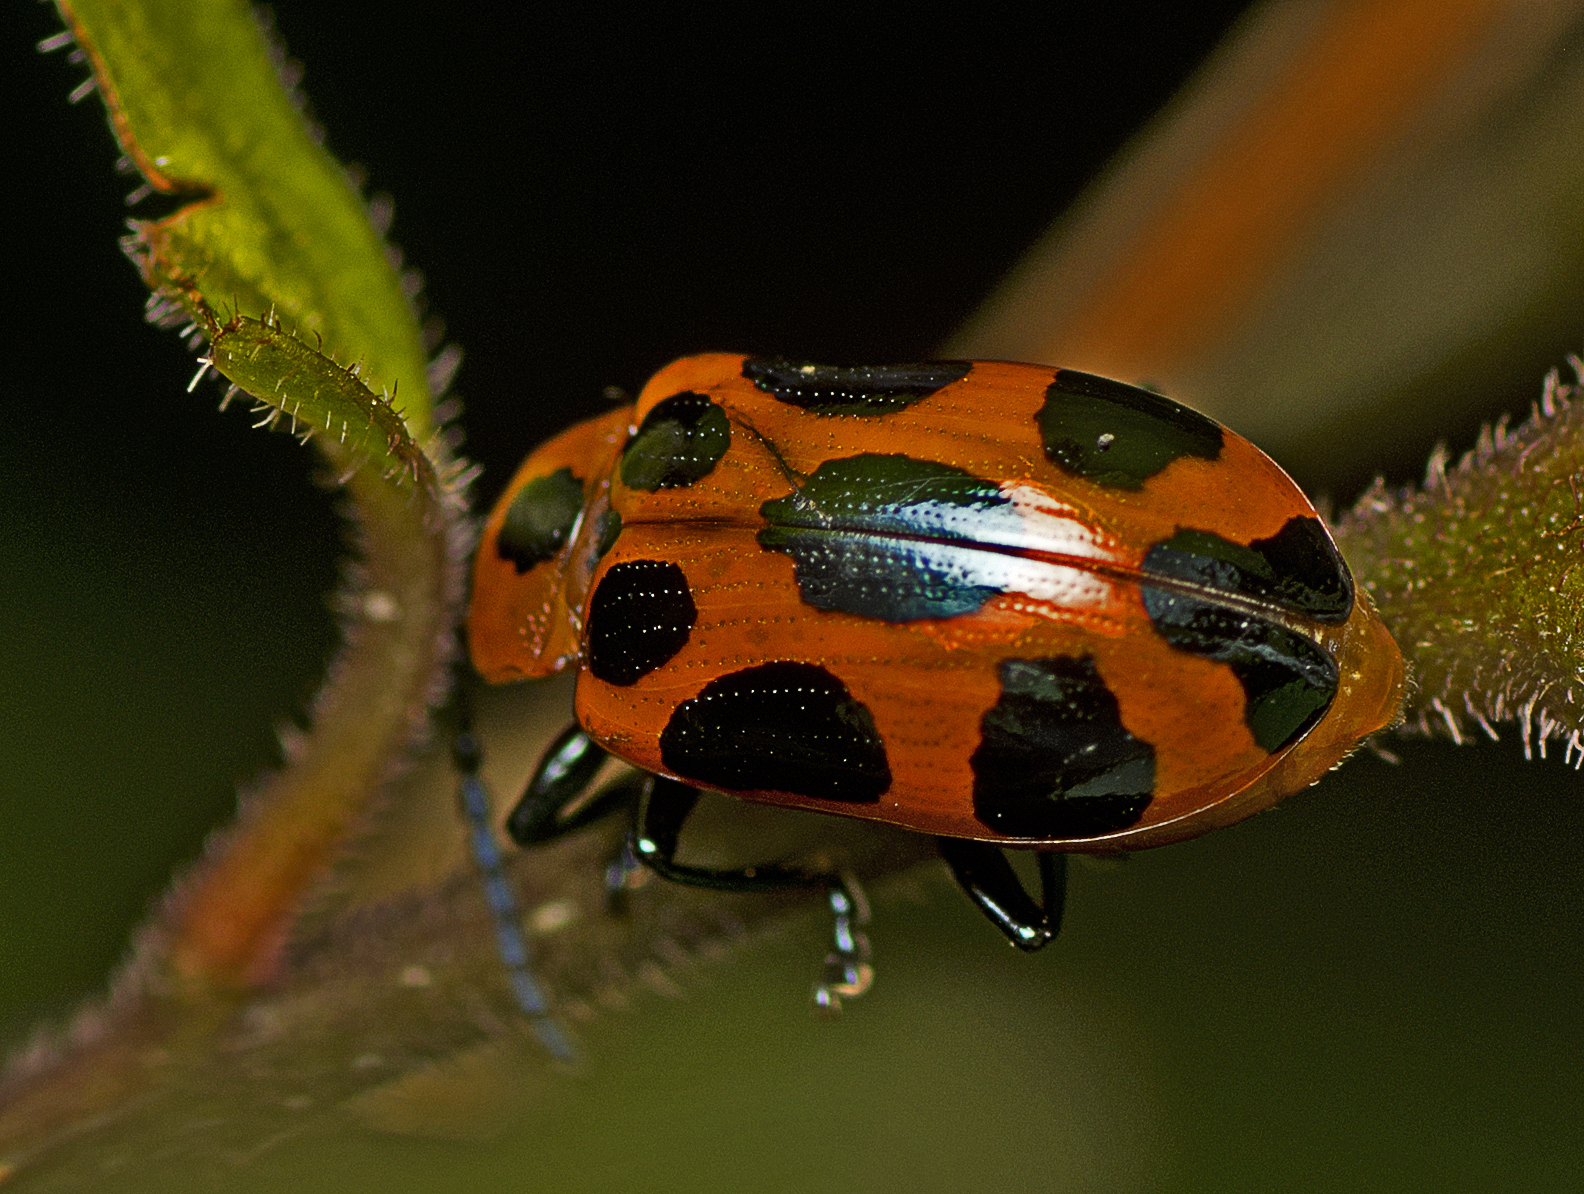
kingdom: Animalia
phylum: Arthropoda
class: Insecta
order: Coleoptera
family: Chrysomelidae
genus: Phyllocharis
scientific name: Phyllocharis
